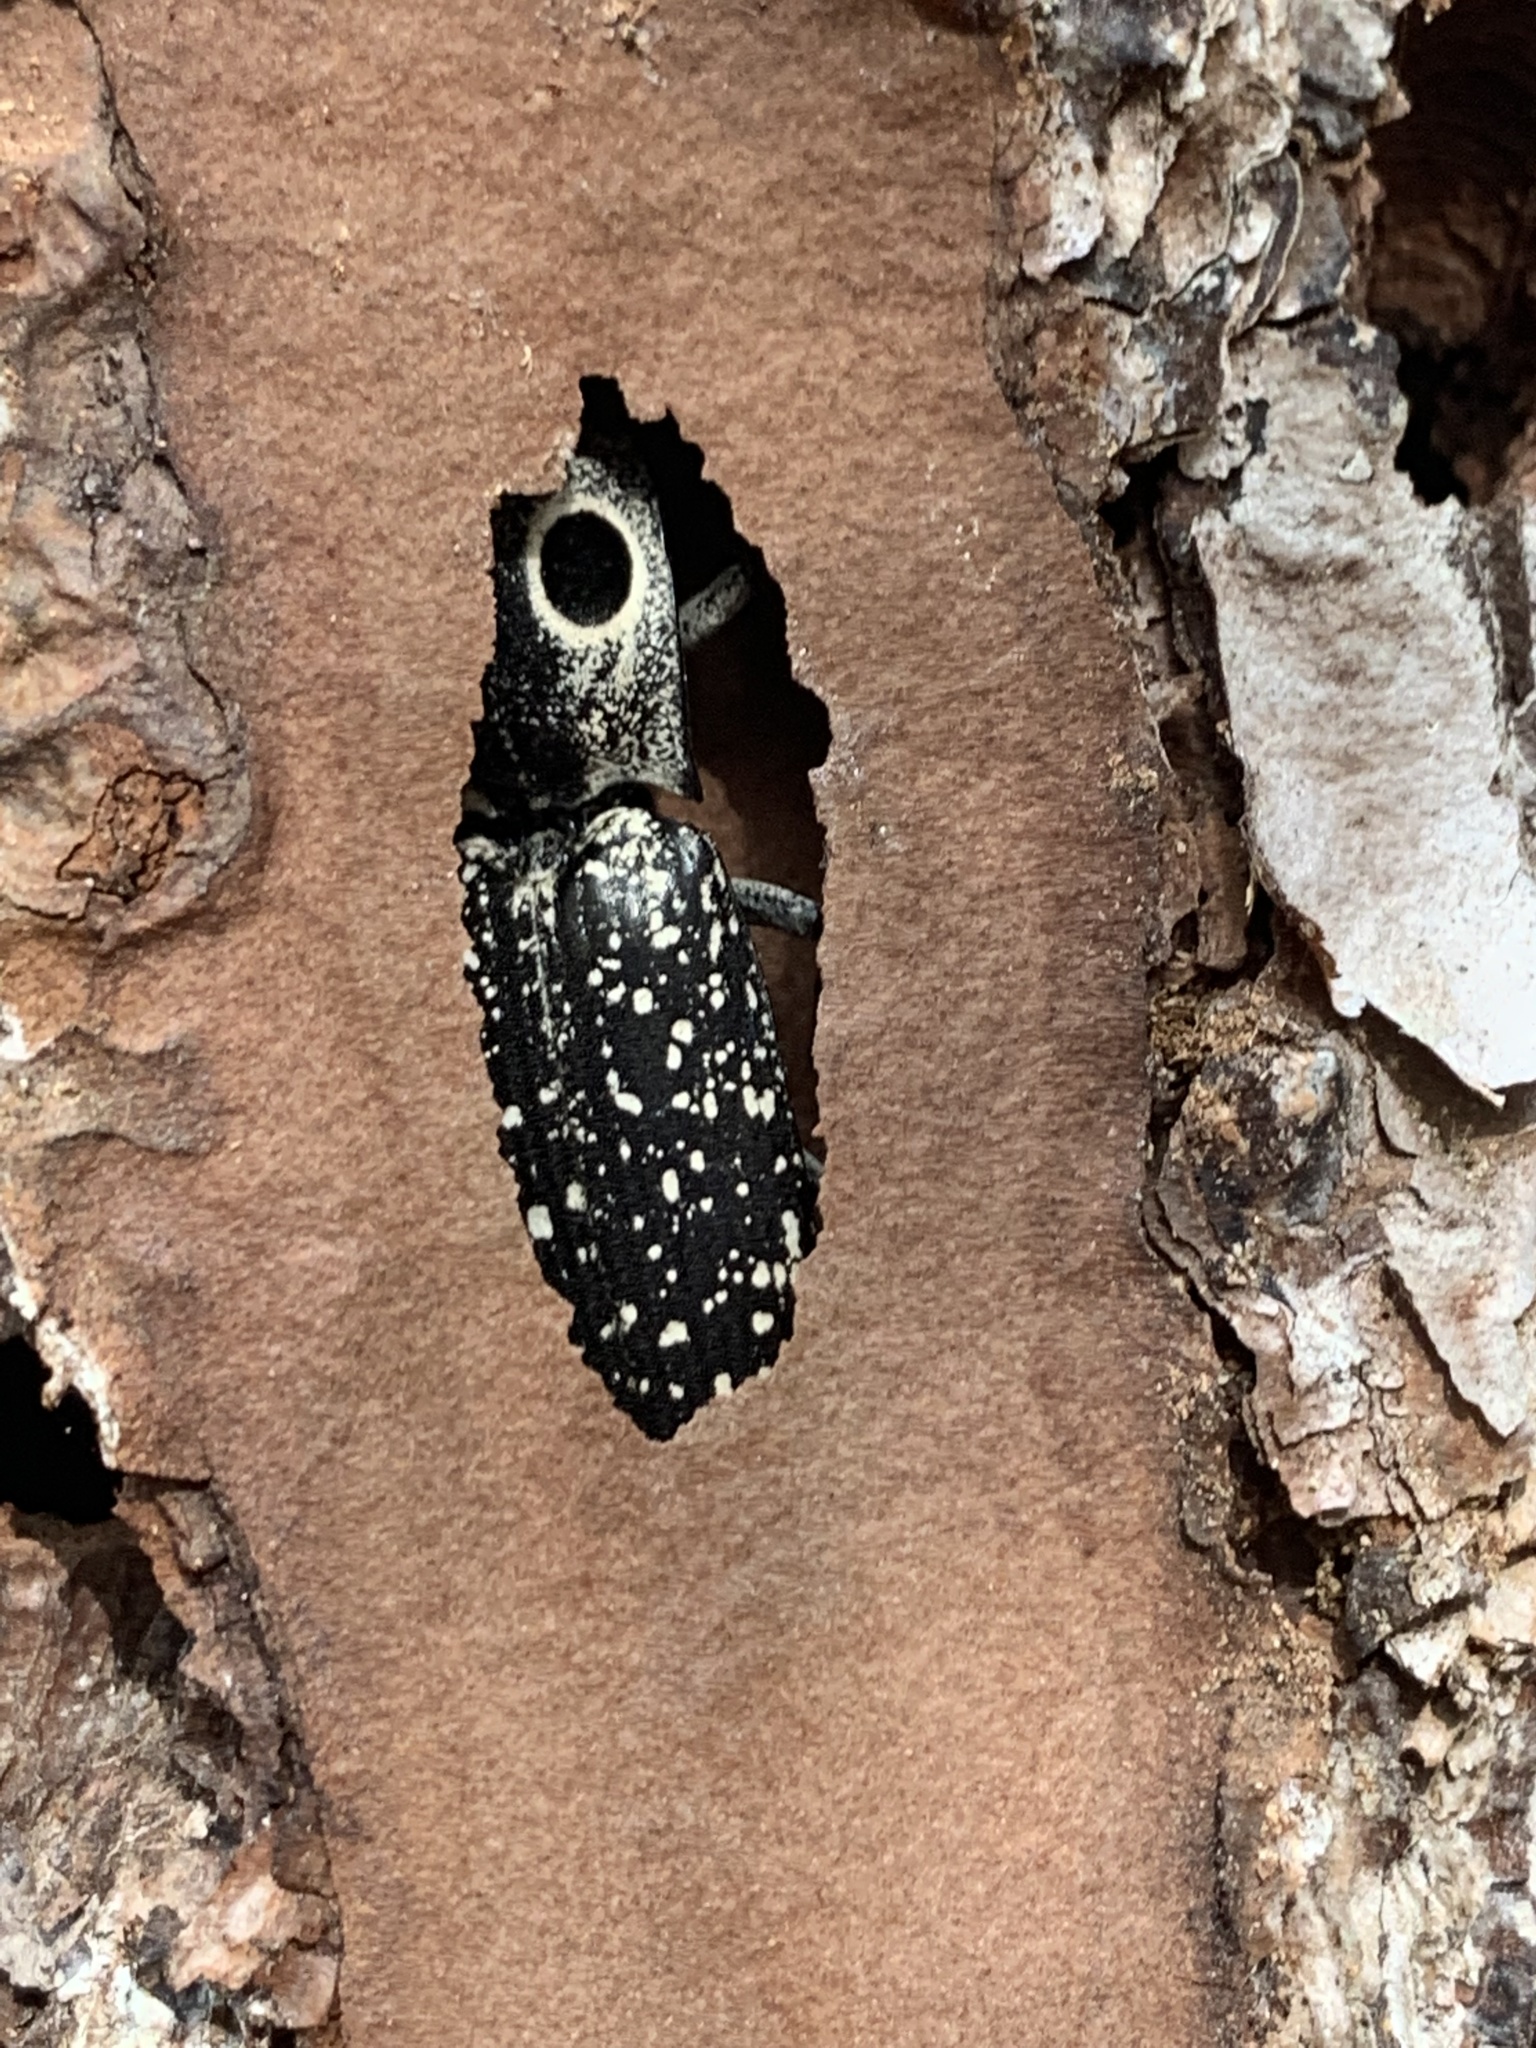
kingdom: Animalia
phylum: Arthropoda
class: Insecta
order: Coleoptera
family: Elateridae
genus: Alaus
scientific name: Alaus oculatus
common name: Eastern eyed click beetle
